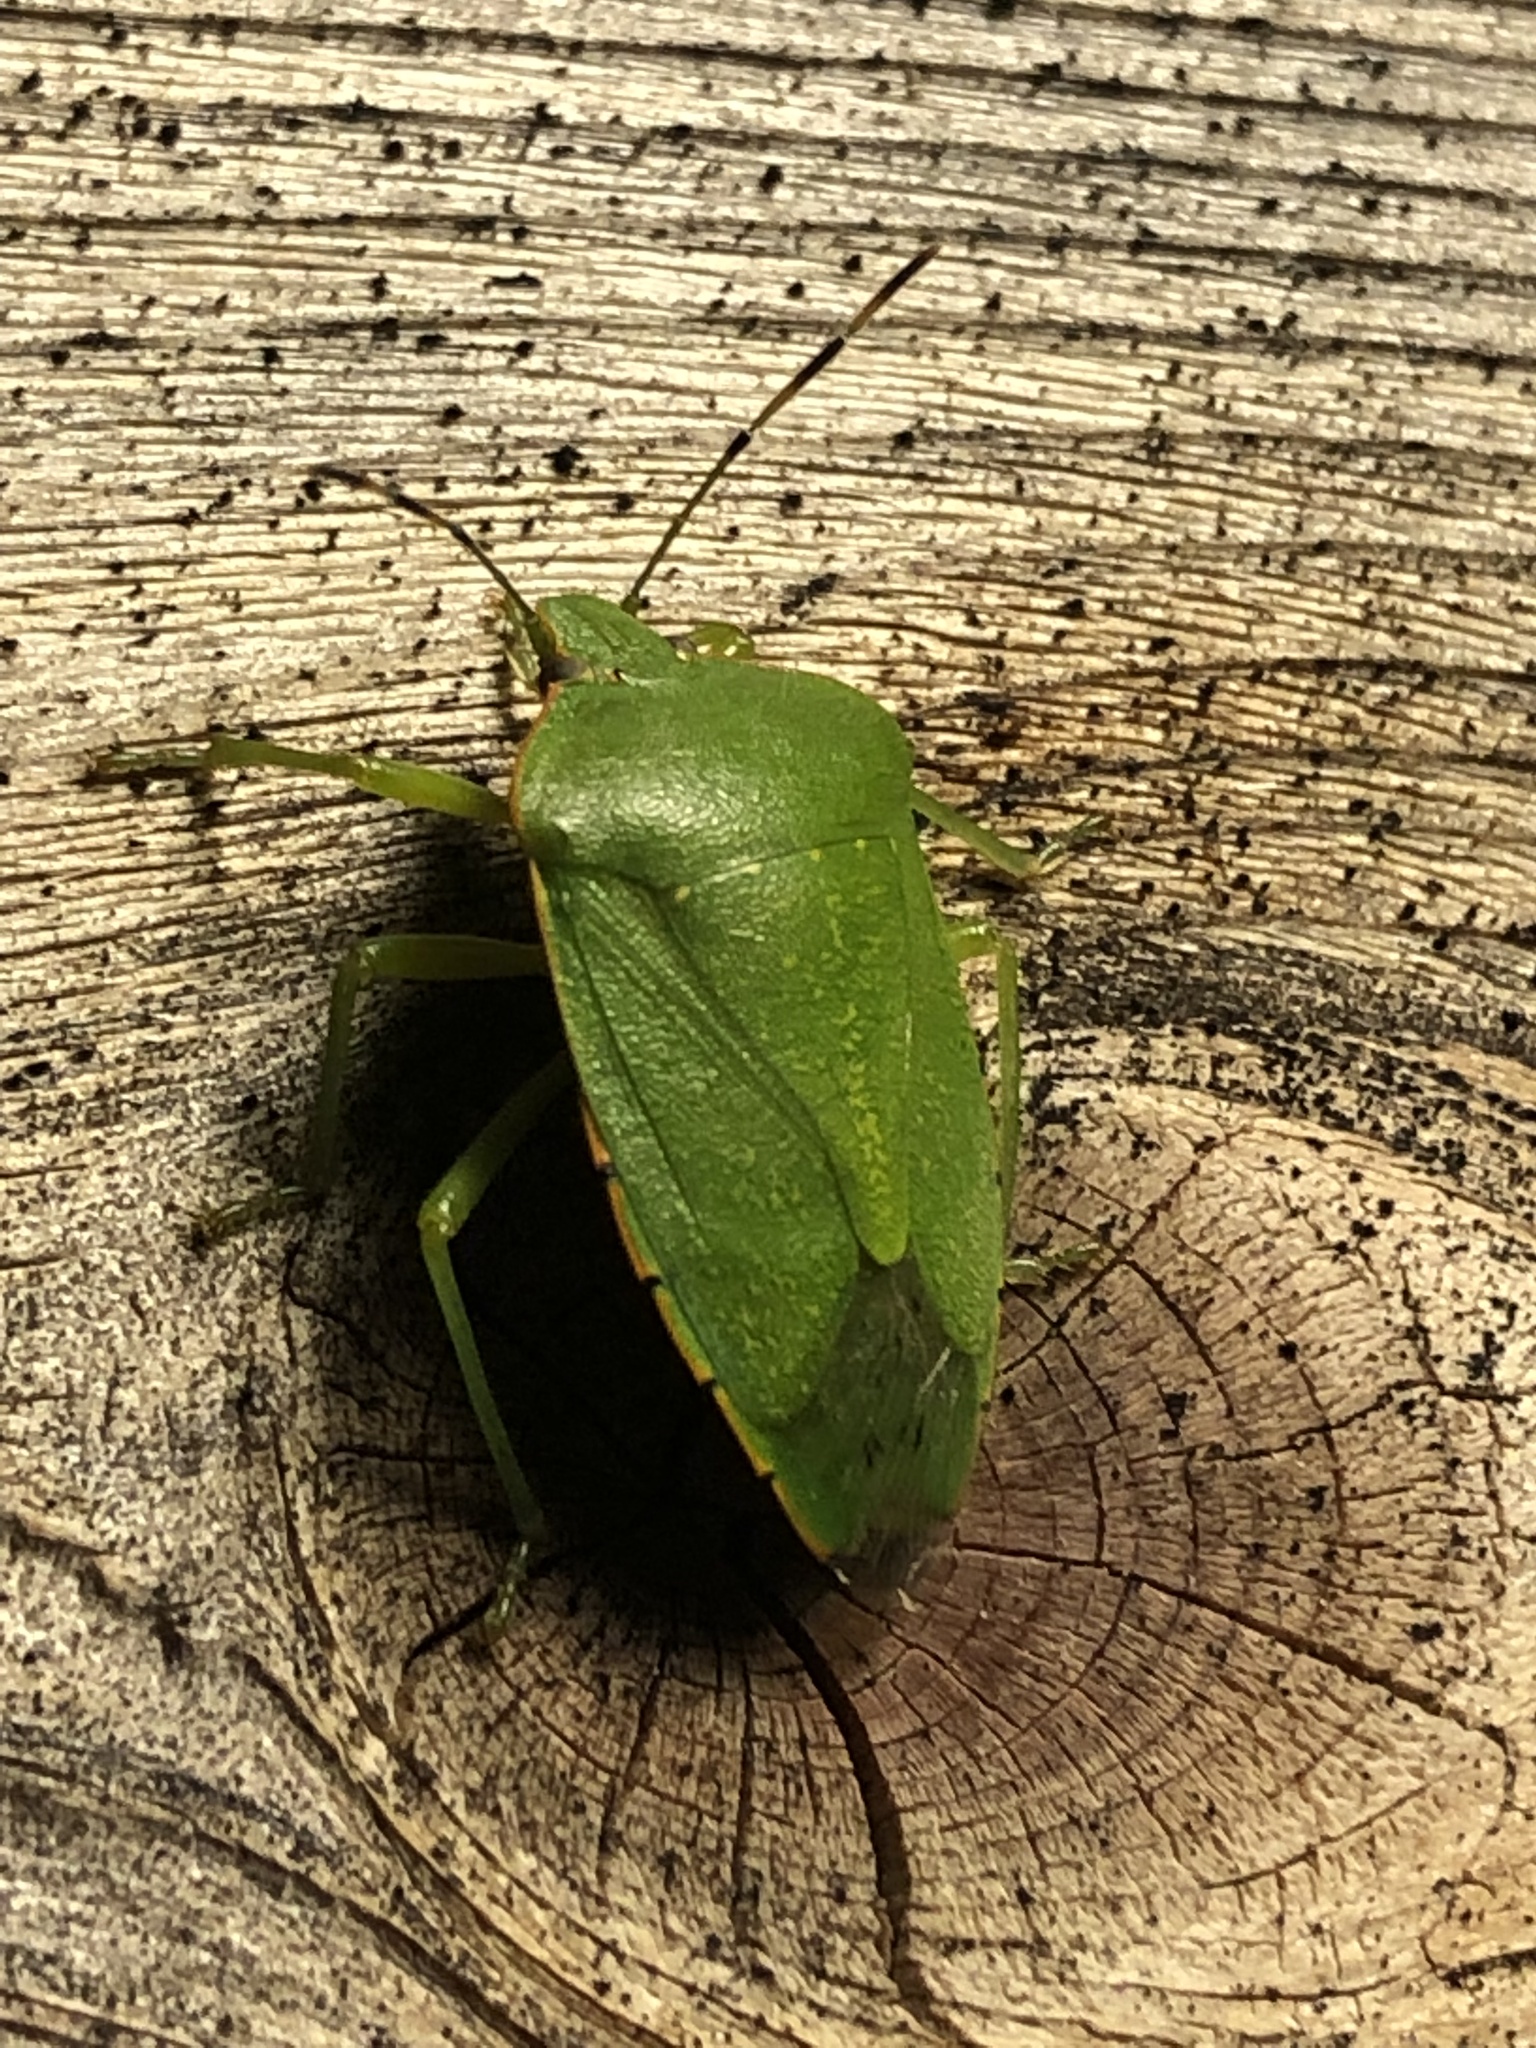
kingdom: Animalia
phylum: Arthropoda
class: Insecta
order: Hemiptera
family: Pentatomidae
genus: Chinavia
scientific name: Chinavia hilaris
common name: Green stink bug
